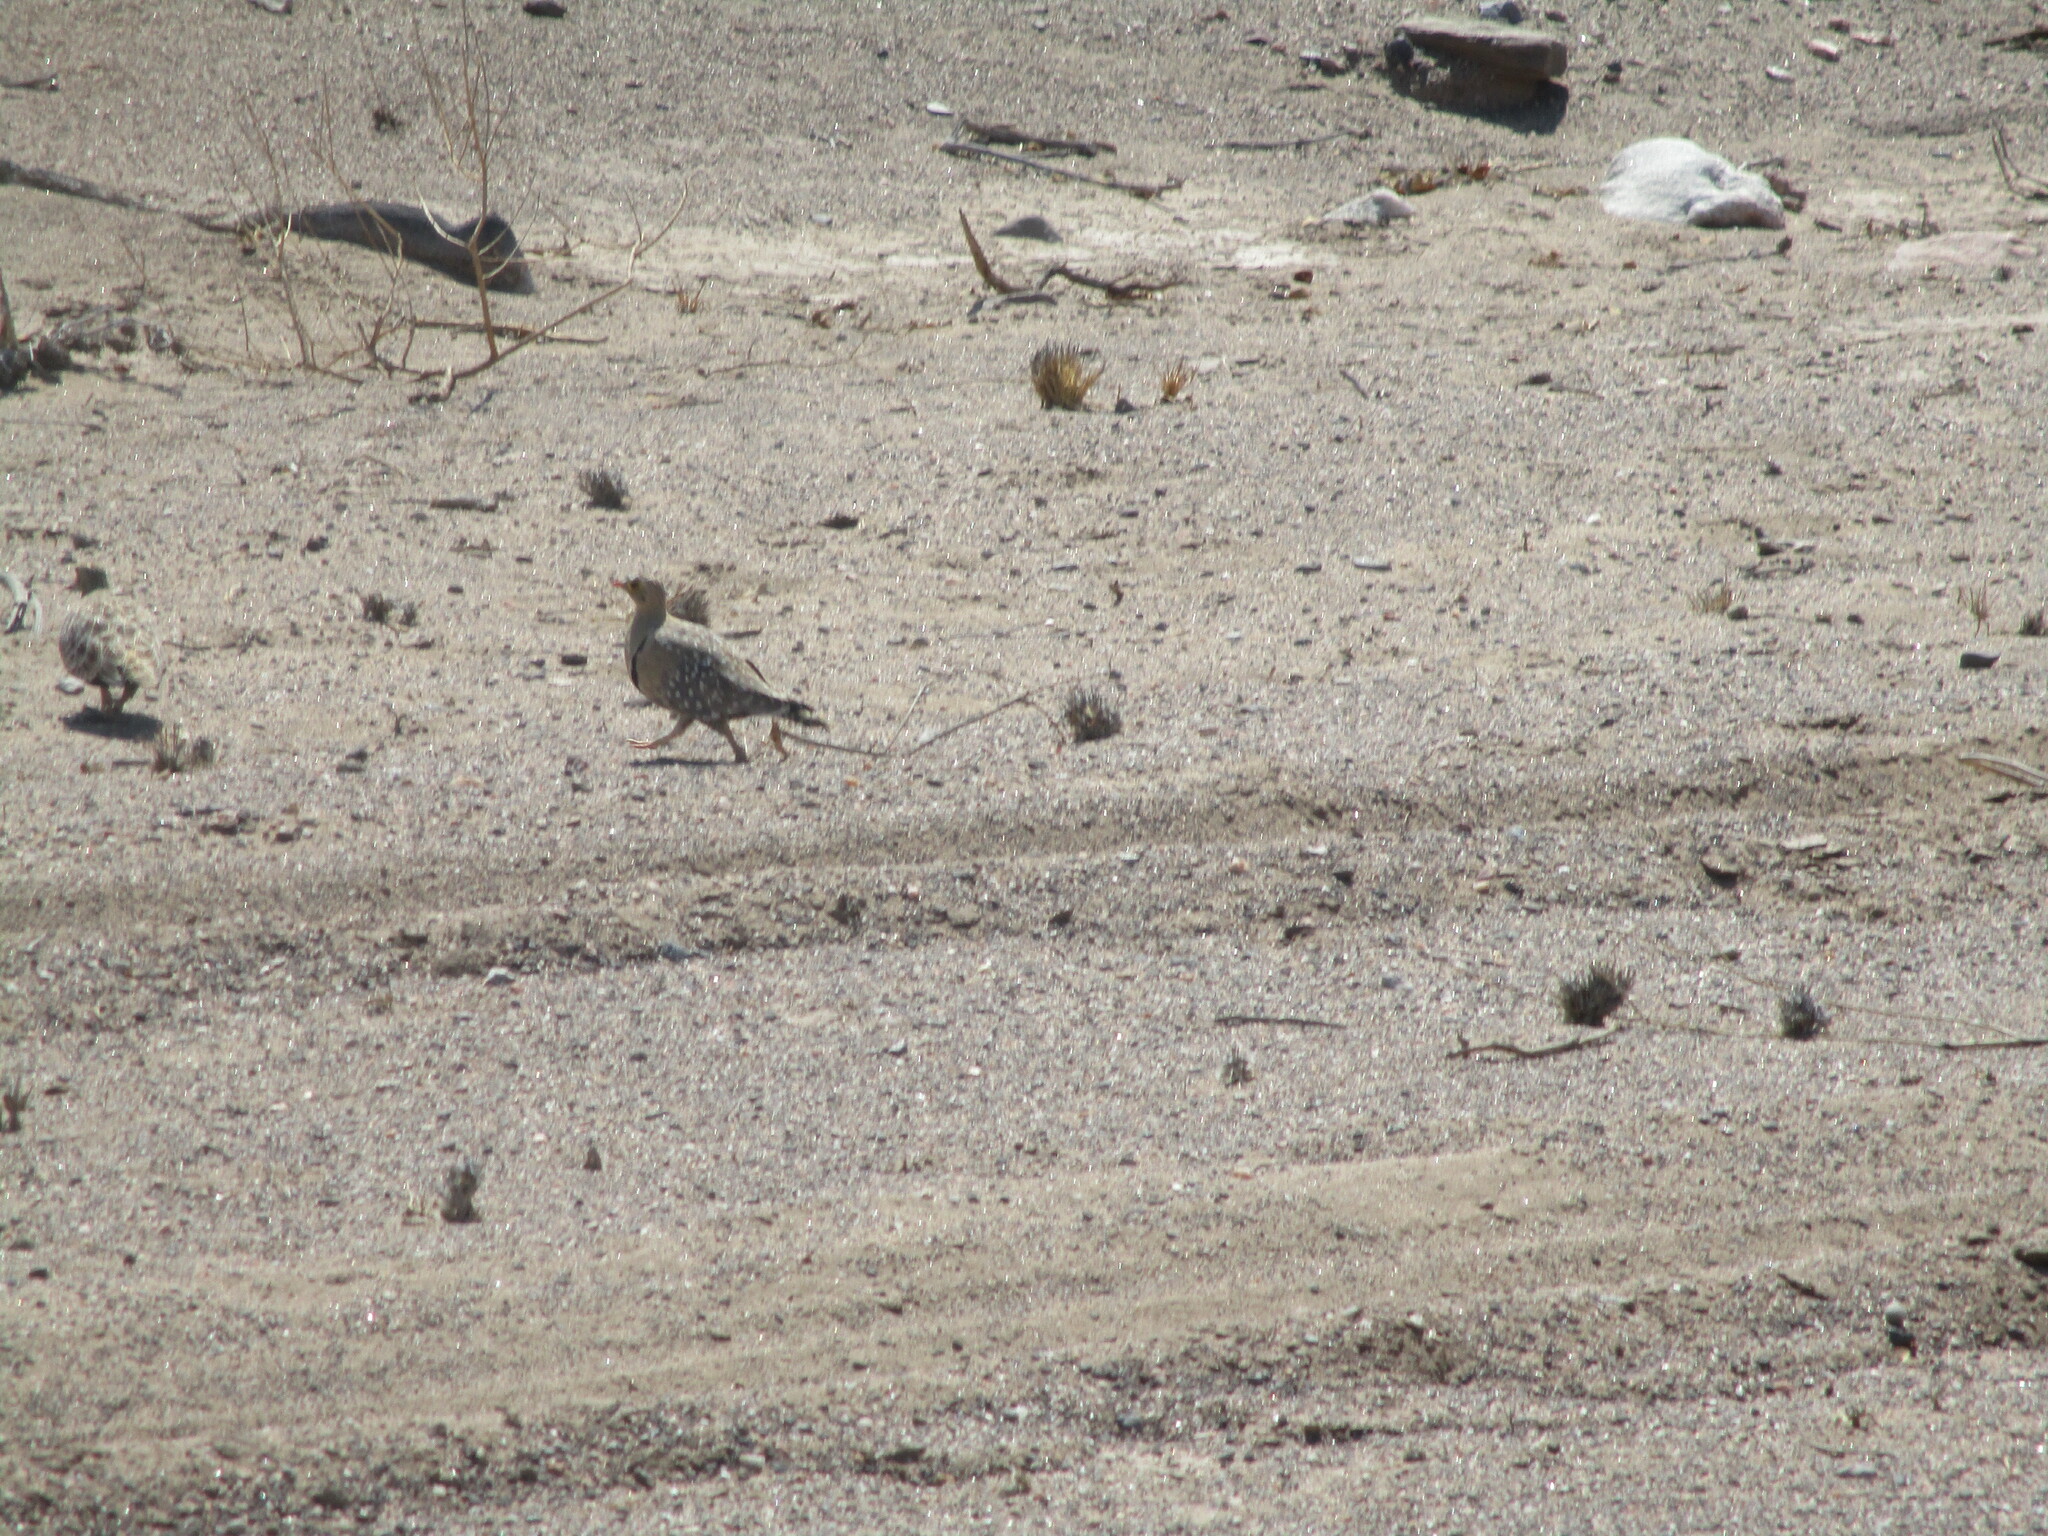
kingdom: Animalia
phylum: Chordata
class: Aves
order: Pteroclidiformes
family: Pteroclididae
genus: Pterocles
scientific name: Pterocles bicinctus
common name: Double-banded sandgrouse
